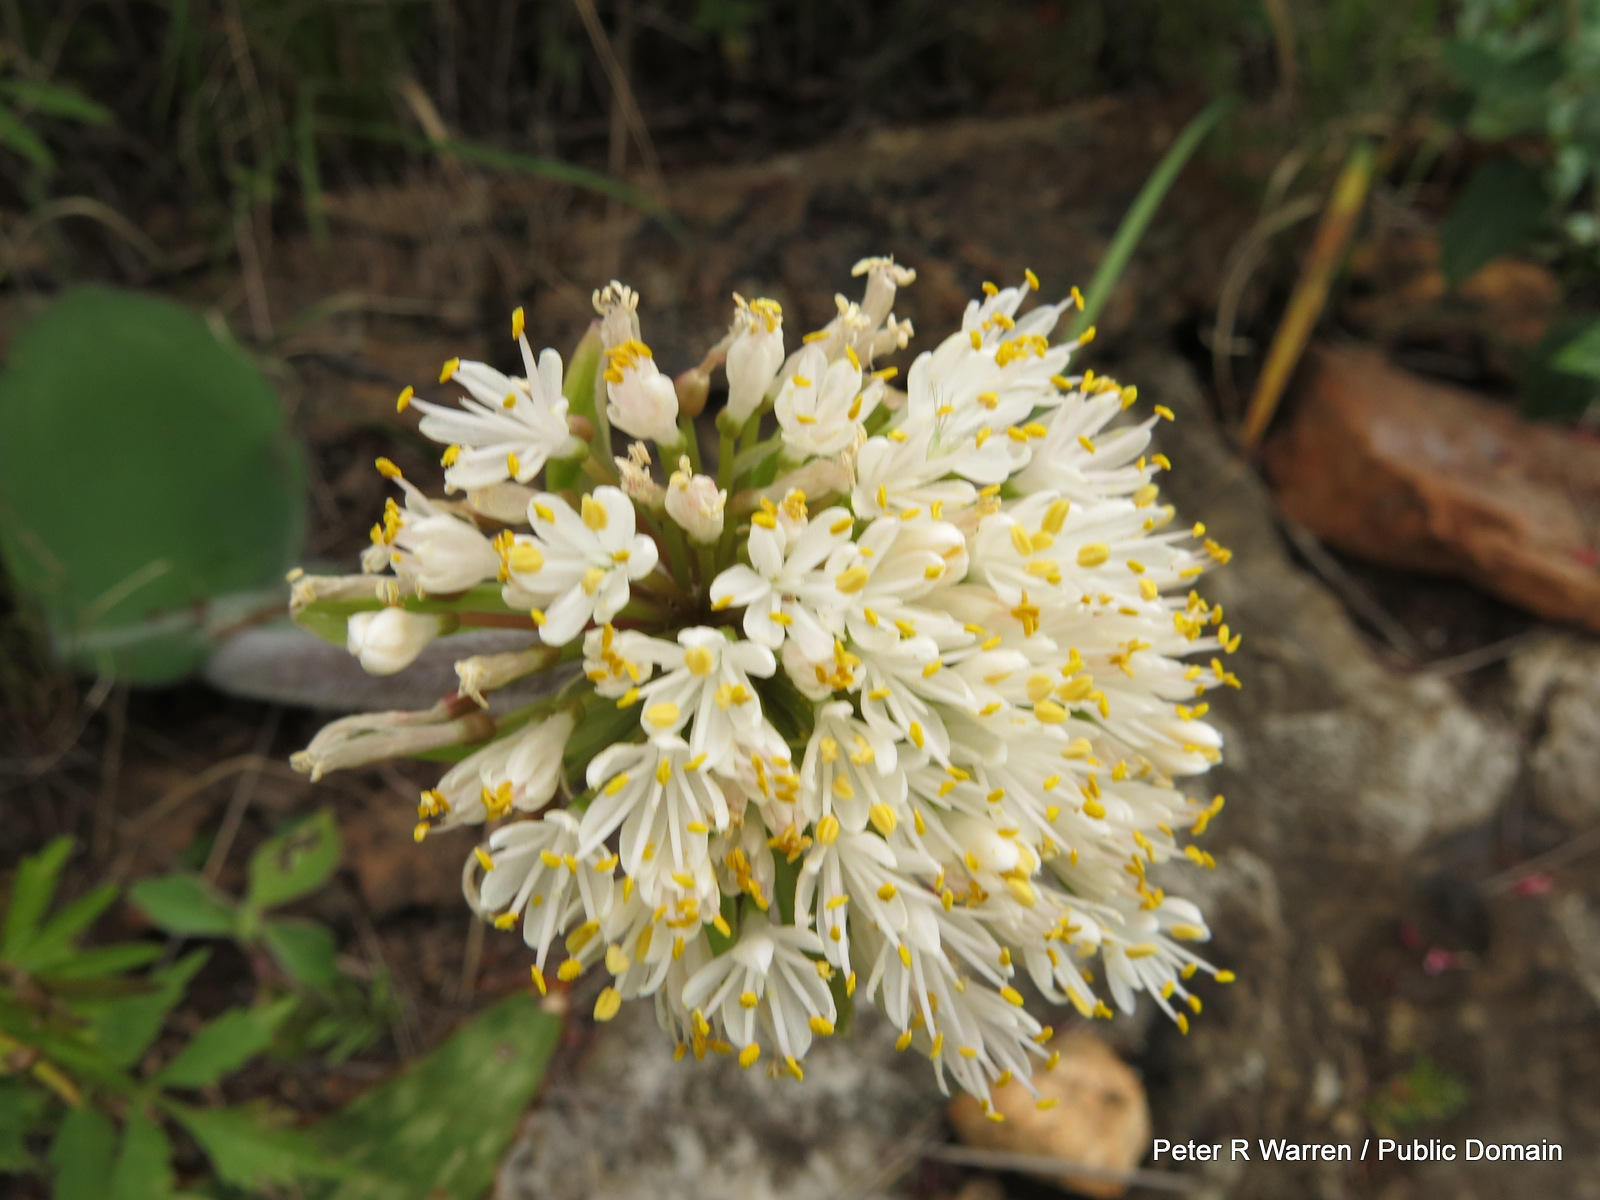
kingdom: Plantae
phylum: Tracheophyta
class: Liliopsida
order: Asparagales
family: Amaryllidaceae
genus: Haemanthus
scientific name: Haemanthus humilis
